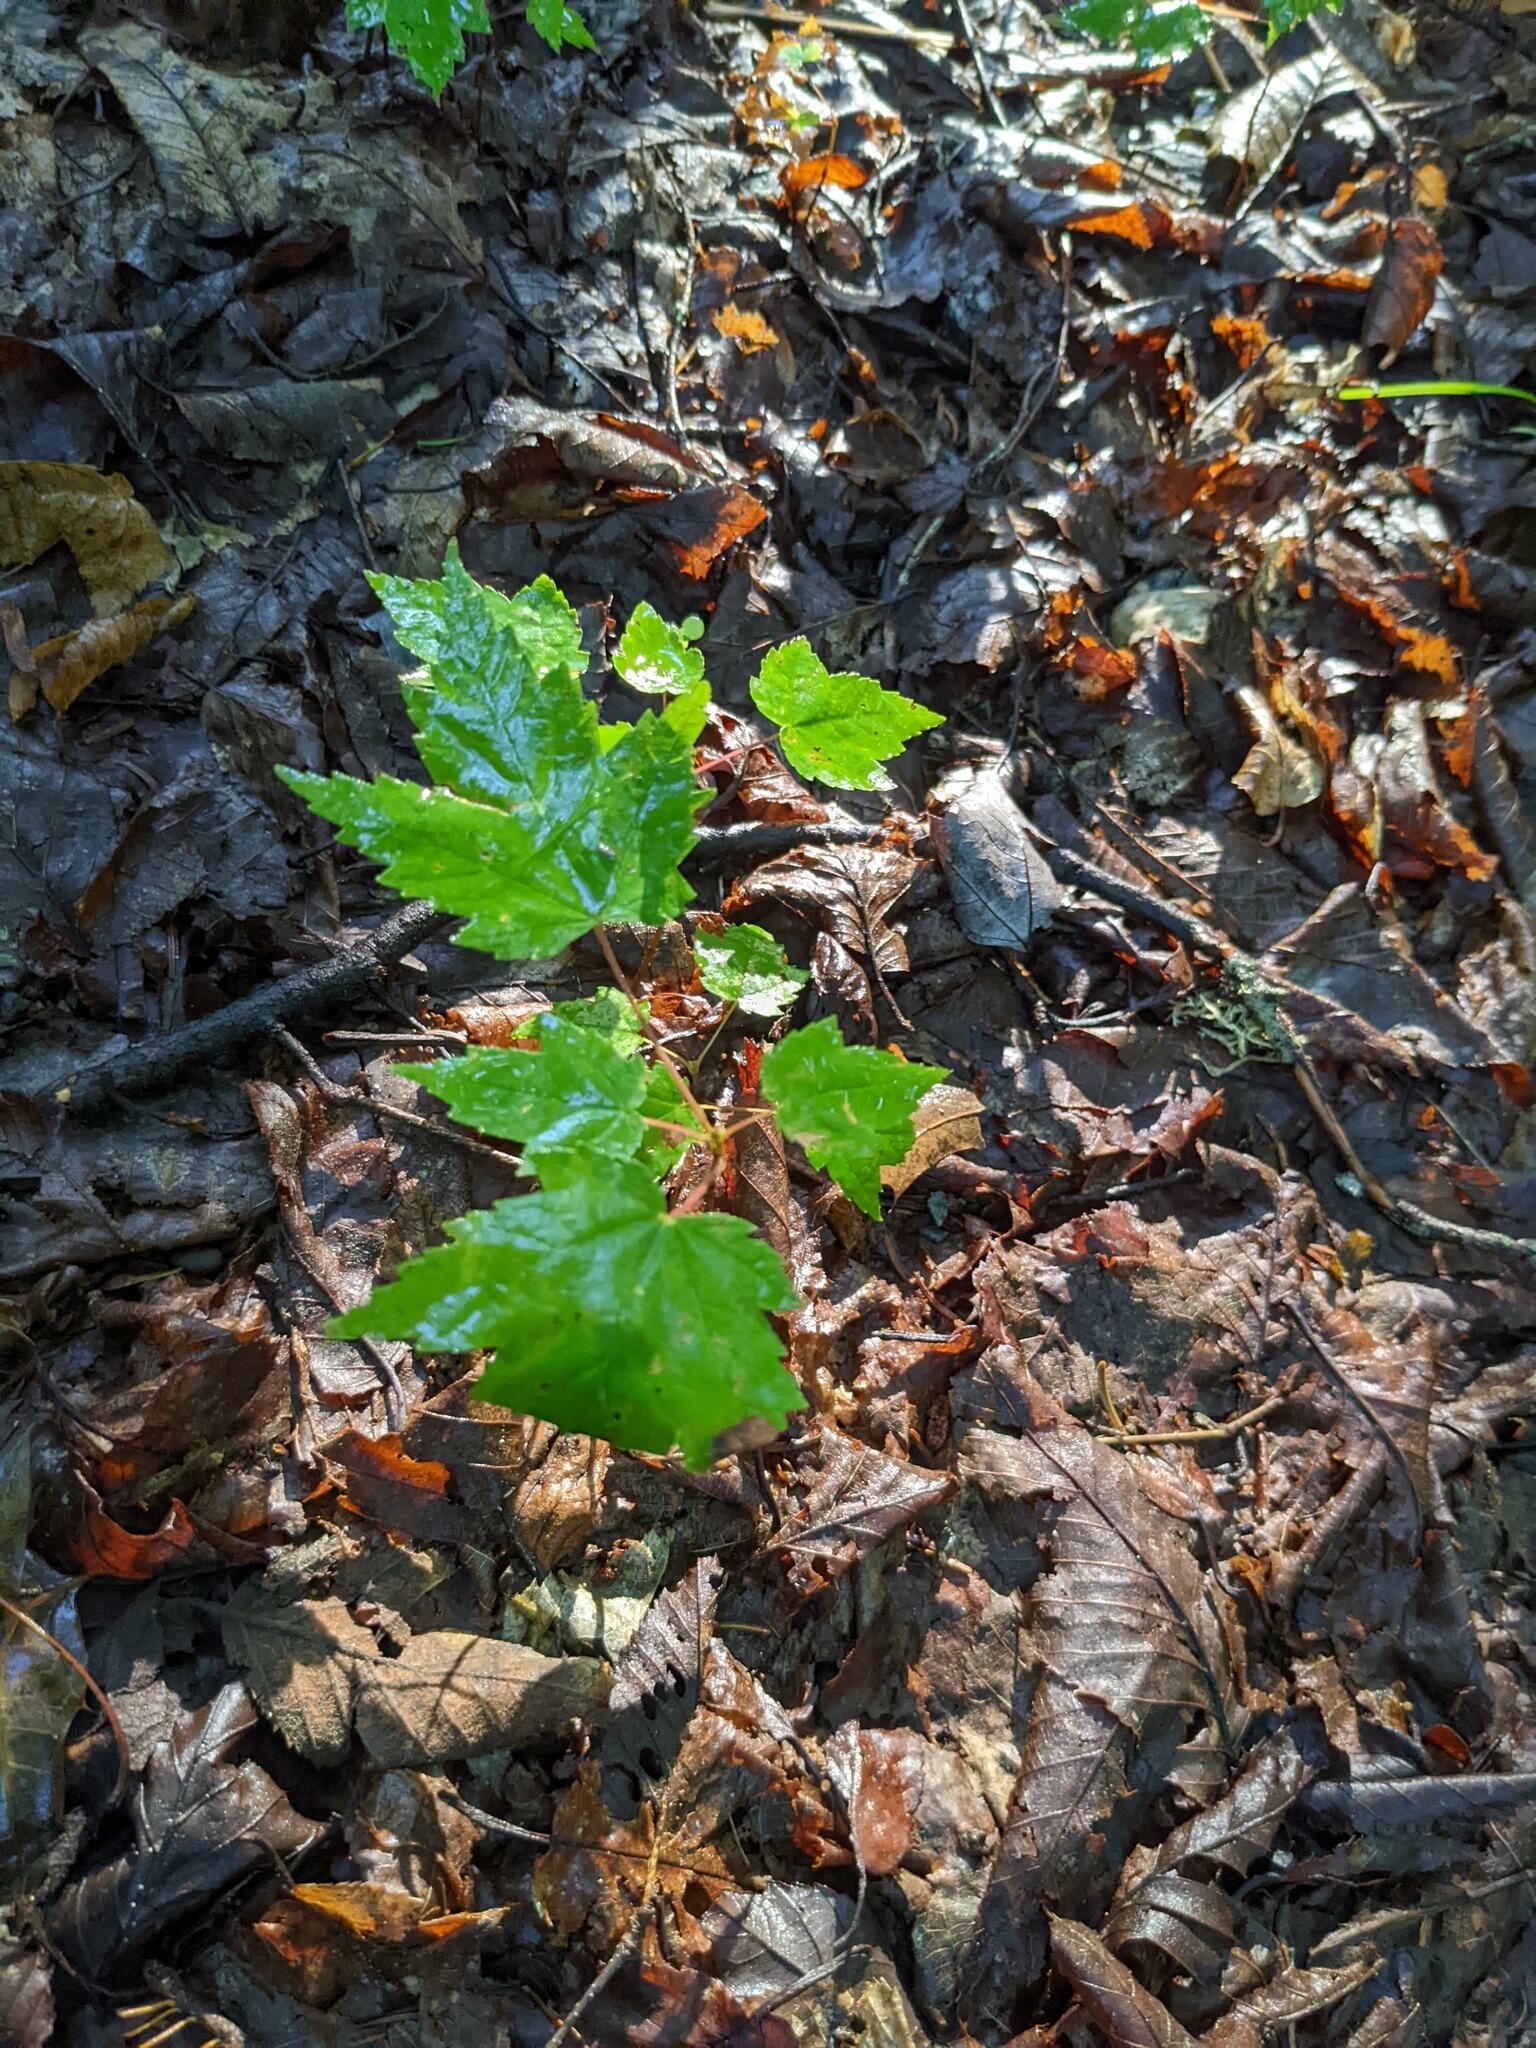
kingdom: Plantae
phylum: Tracheophyta
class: Magnoliopsida
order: Sapindales
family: Sapindaceae
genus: Acer
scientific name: Acer rubrum
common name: Red maple
